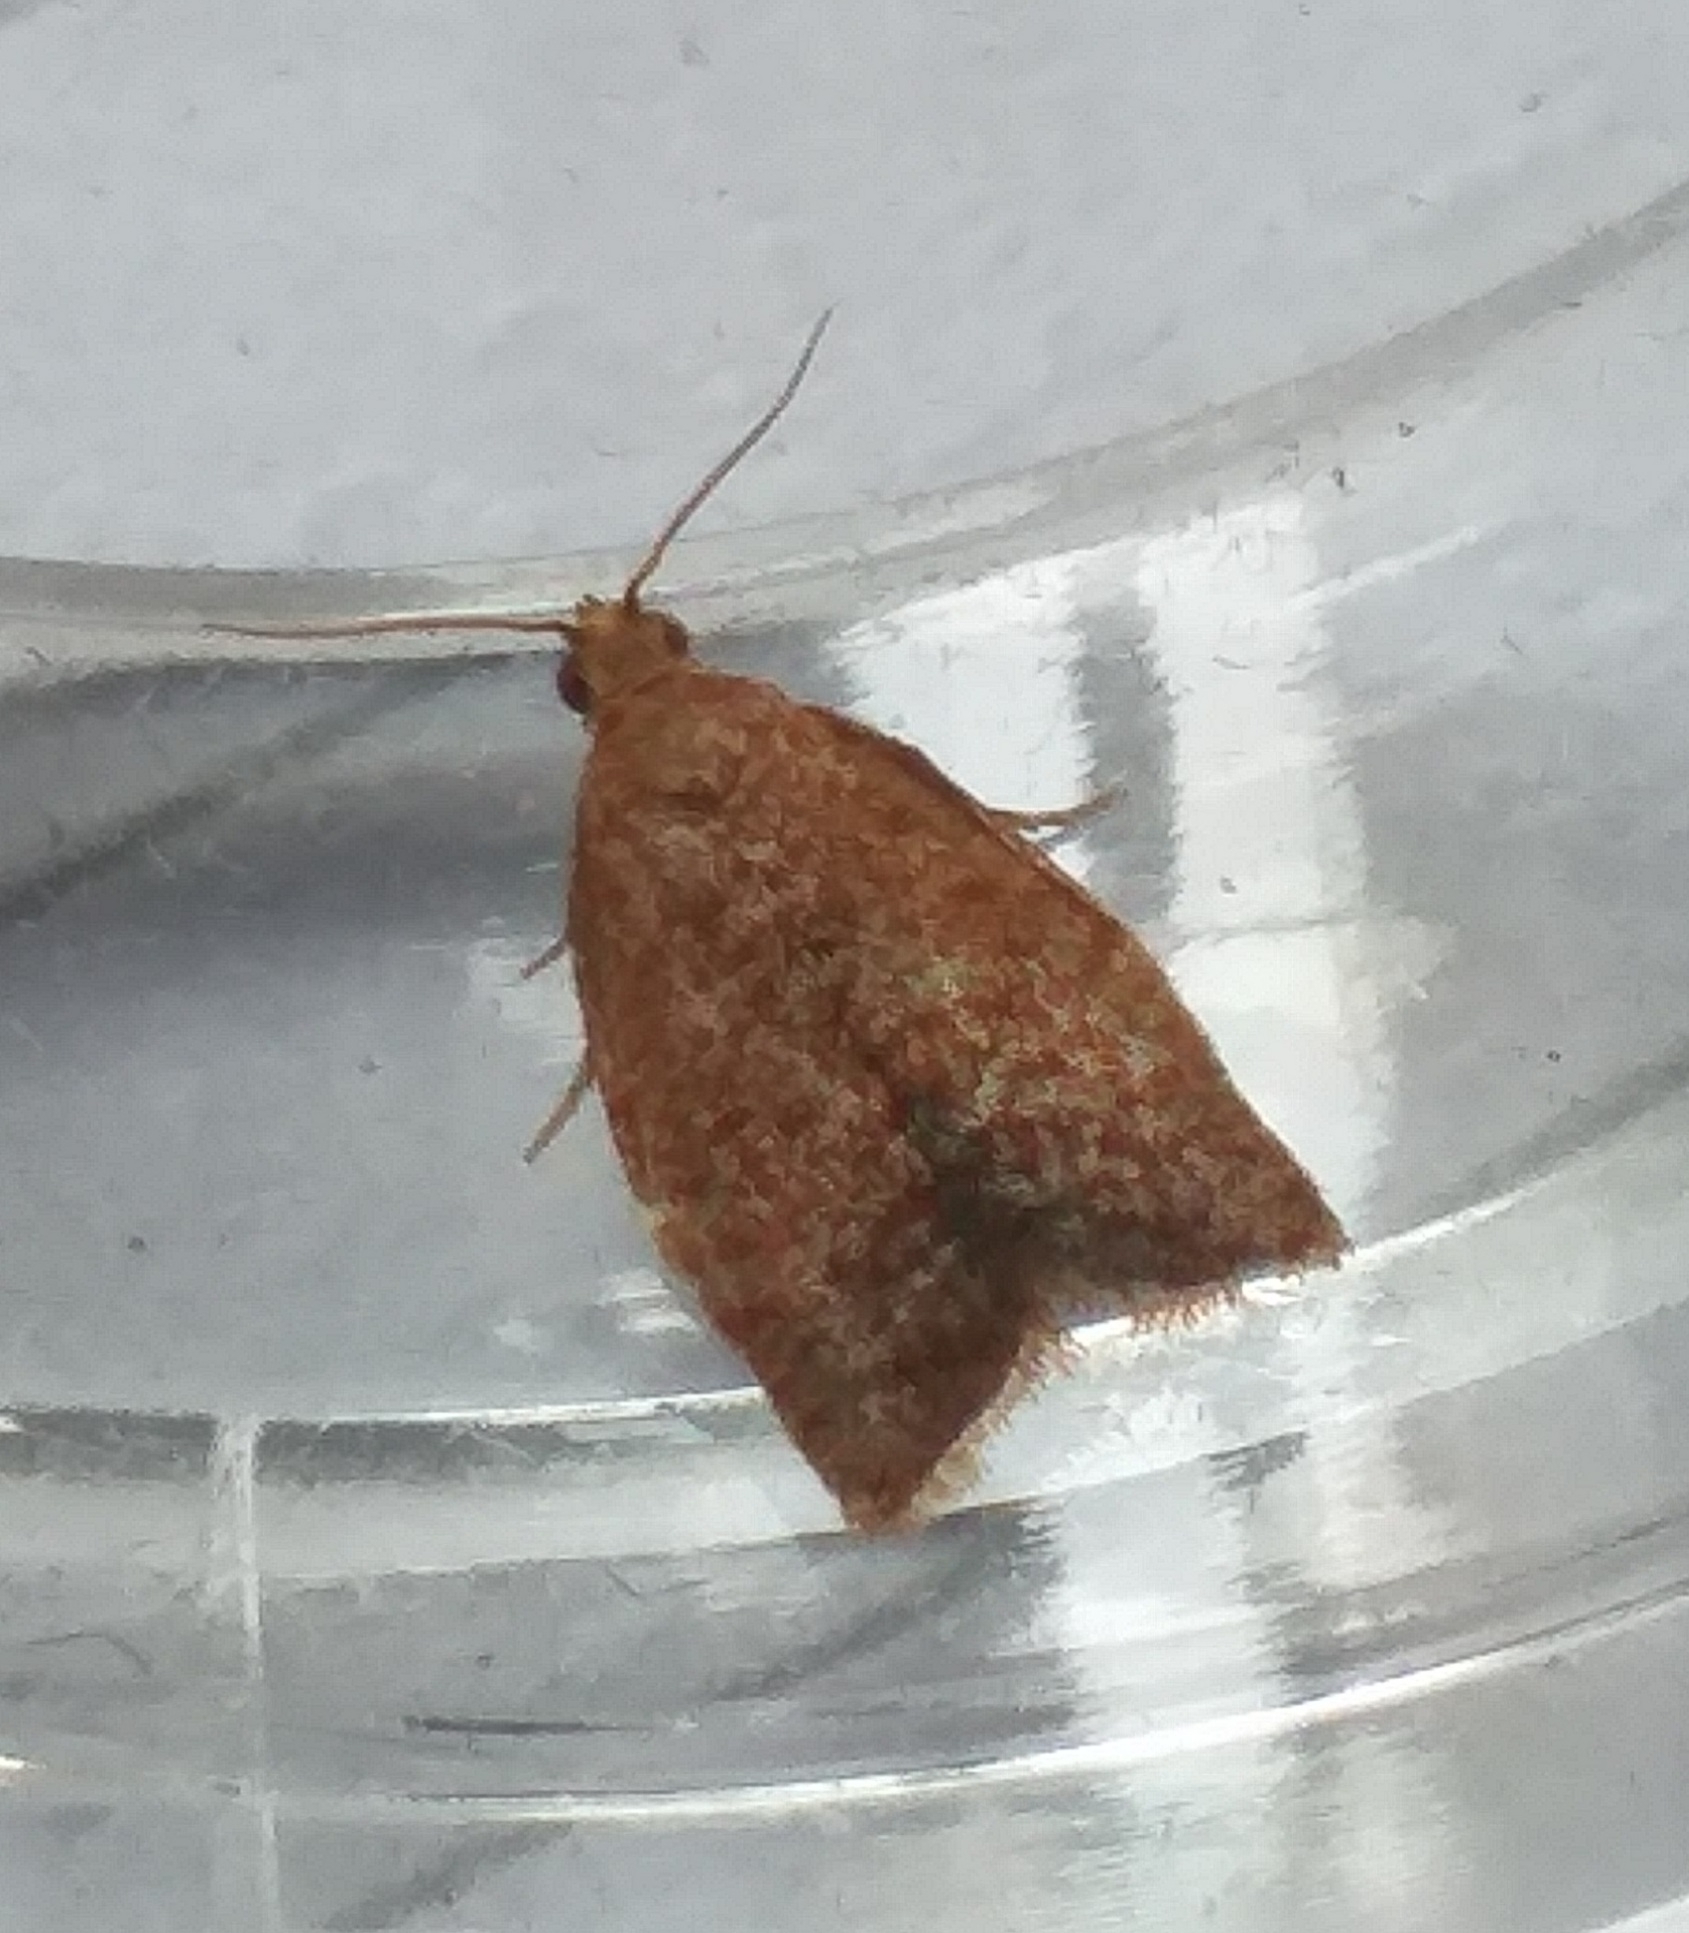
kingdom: Animalia
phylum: Arthropoda
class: Insecta
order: Lepidoptera
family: Tortricidae
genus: Clepsis
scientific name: Clepsis consimilana
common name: Privet tortrix
